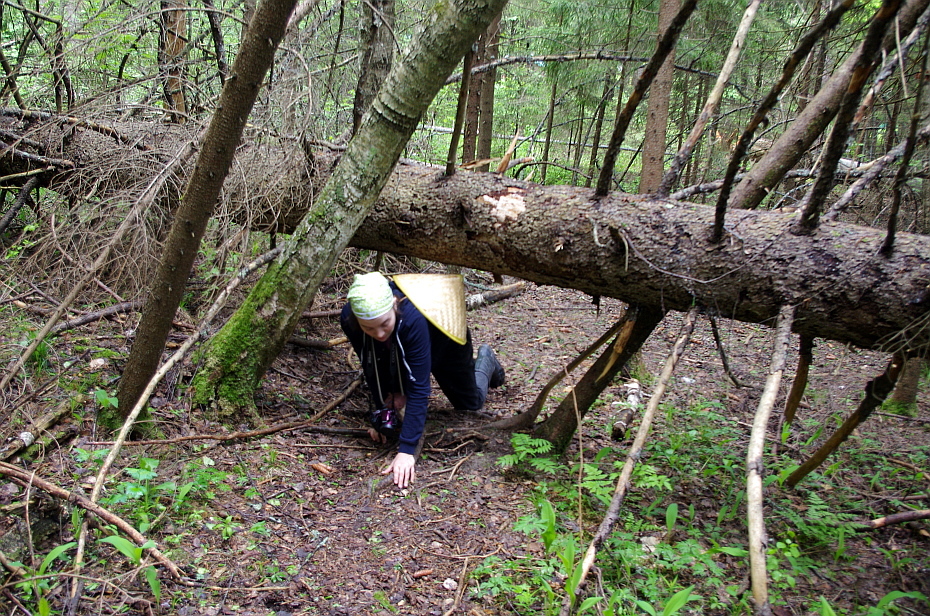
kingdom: Plantae
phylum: Tracheophyta
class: Pinopsida
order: Pinales
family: Pinaceae
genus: Picea
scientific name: Picea abies
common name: Norway spruce
